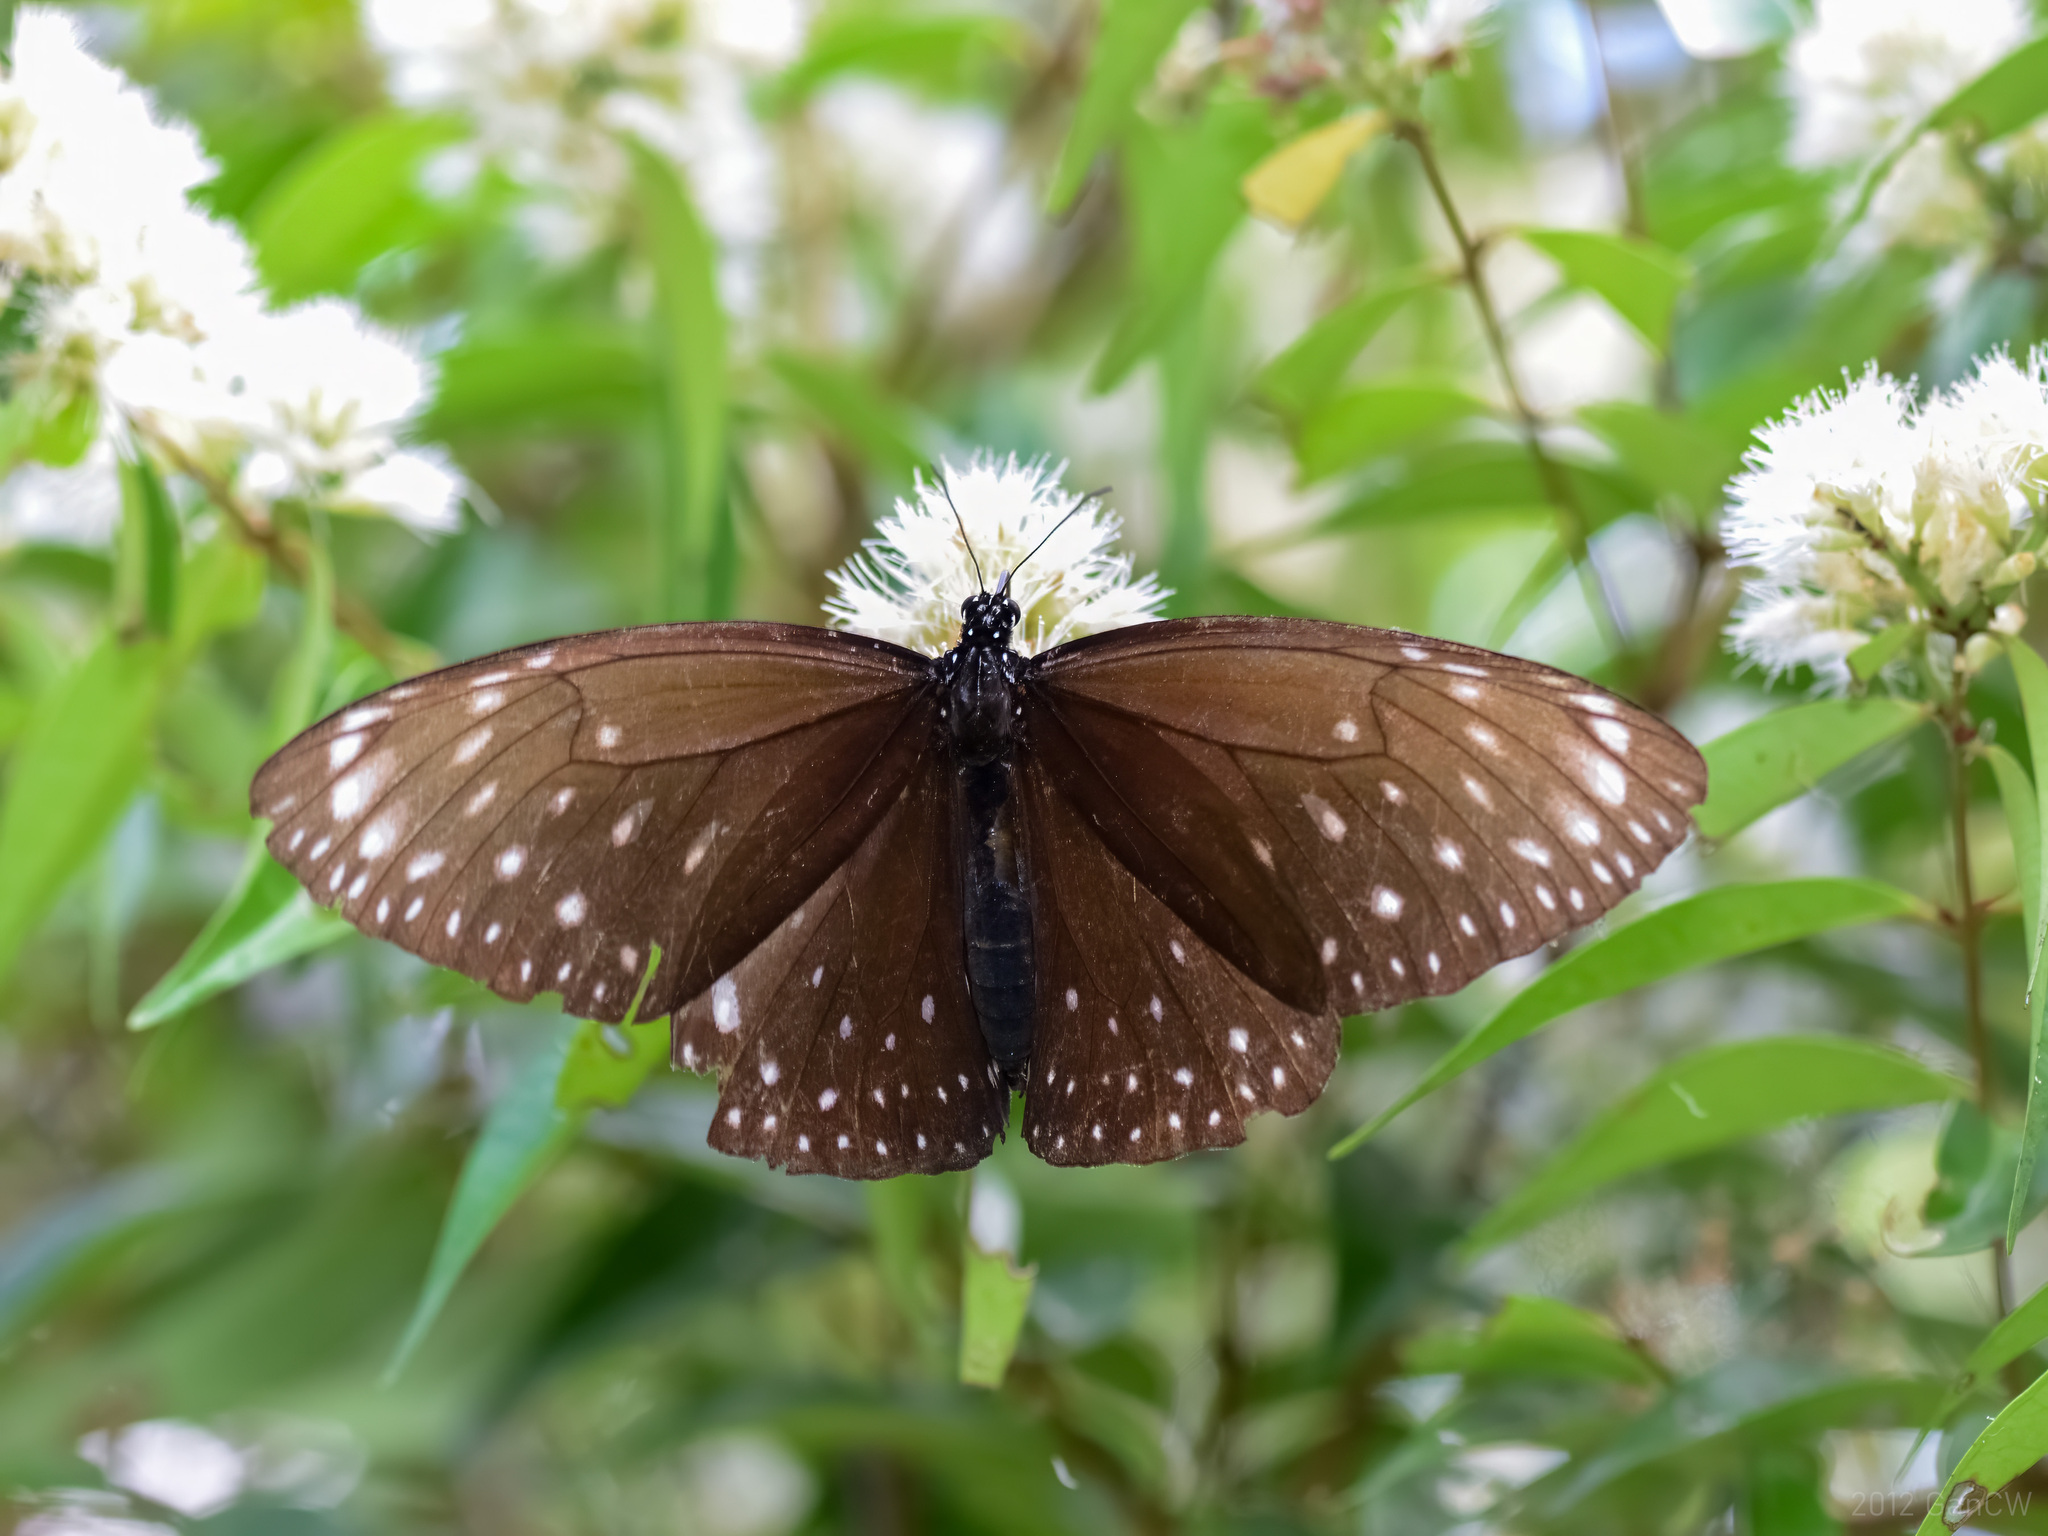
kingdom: Animalia
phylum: Arthropoda
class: Insecta
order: Lepidoptera
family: Nymphalidae
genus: Euploea
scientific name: Euploea phaenareta
